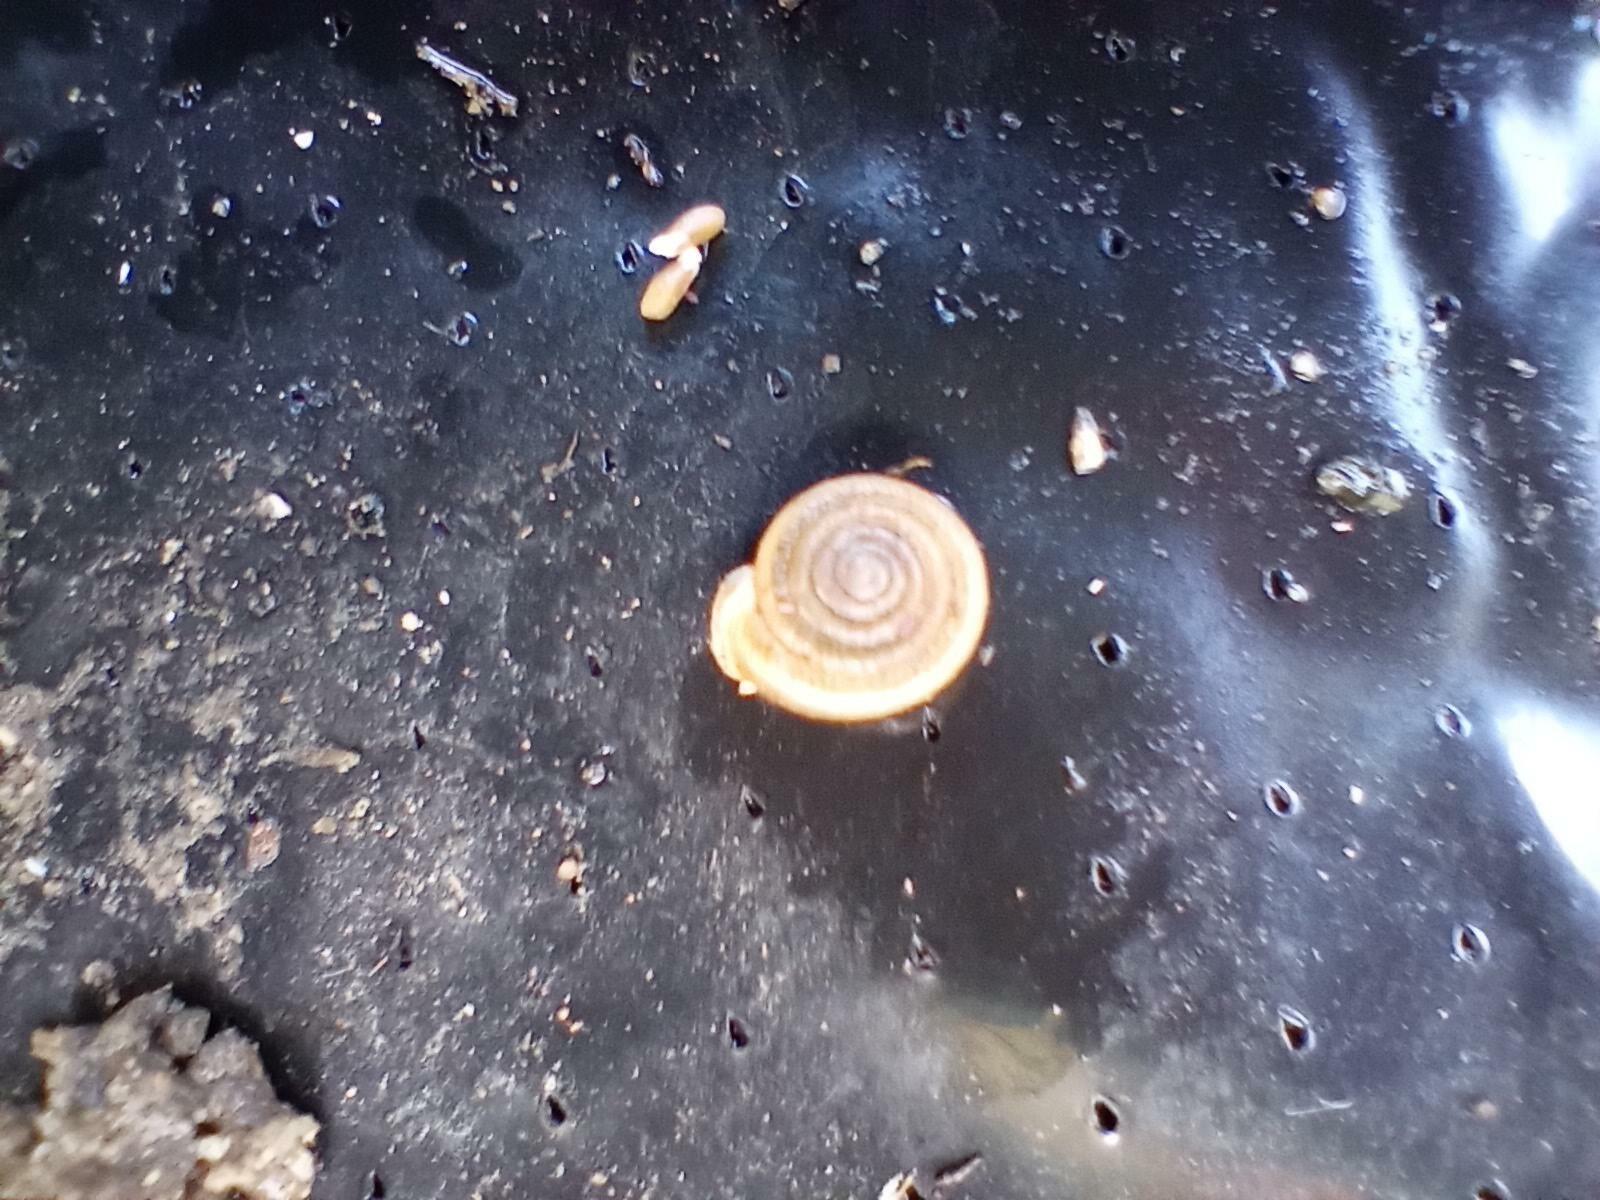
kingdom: Animalia
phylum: Mollusca
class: Gastropoda
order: Stylommatophora
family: Polygyridae
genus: Polygyra
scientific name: Polygyra cereolus
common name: Southern flatcone snail
